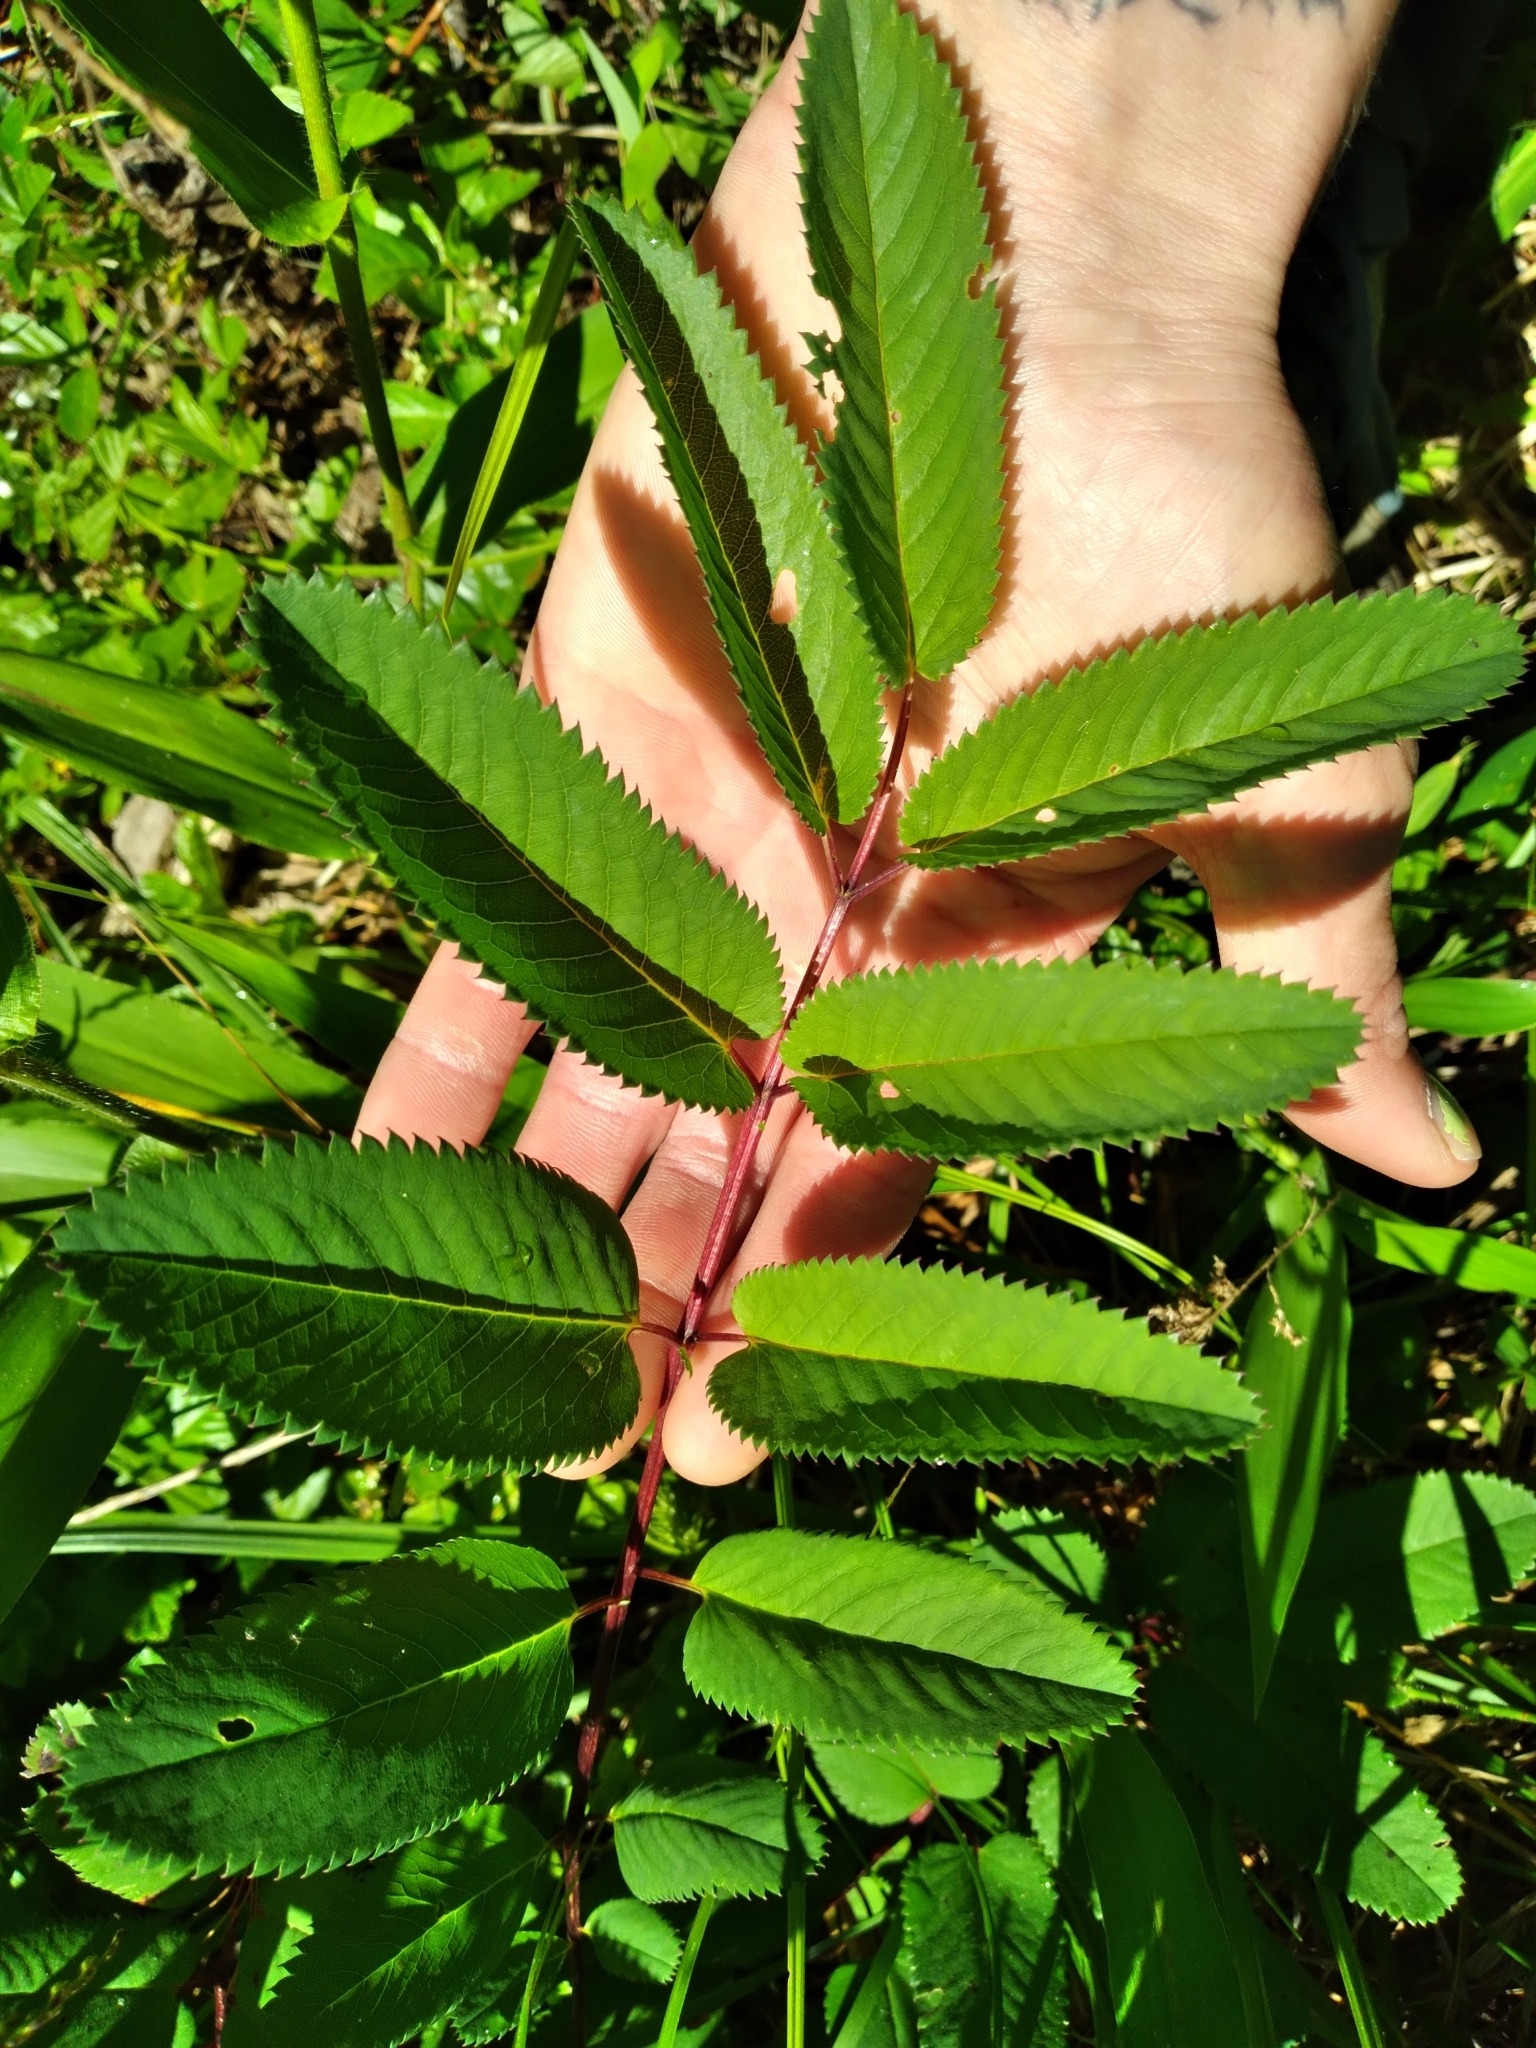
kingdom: Plantae
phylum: Tracheophyta
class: Magnoliopsida
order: Rosales
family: Rosaceae
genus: Sanguisorba
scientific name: Sanguisorba canadensis
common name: White burnet
